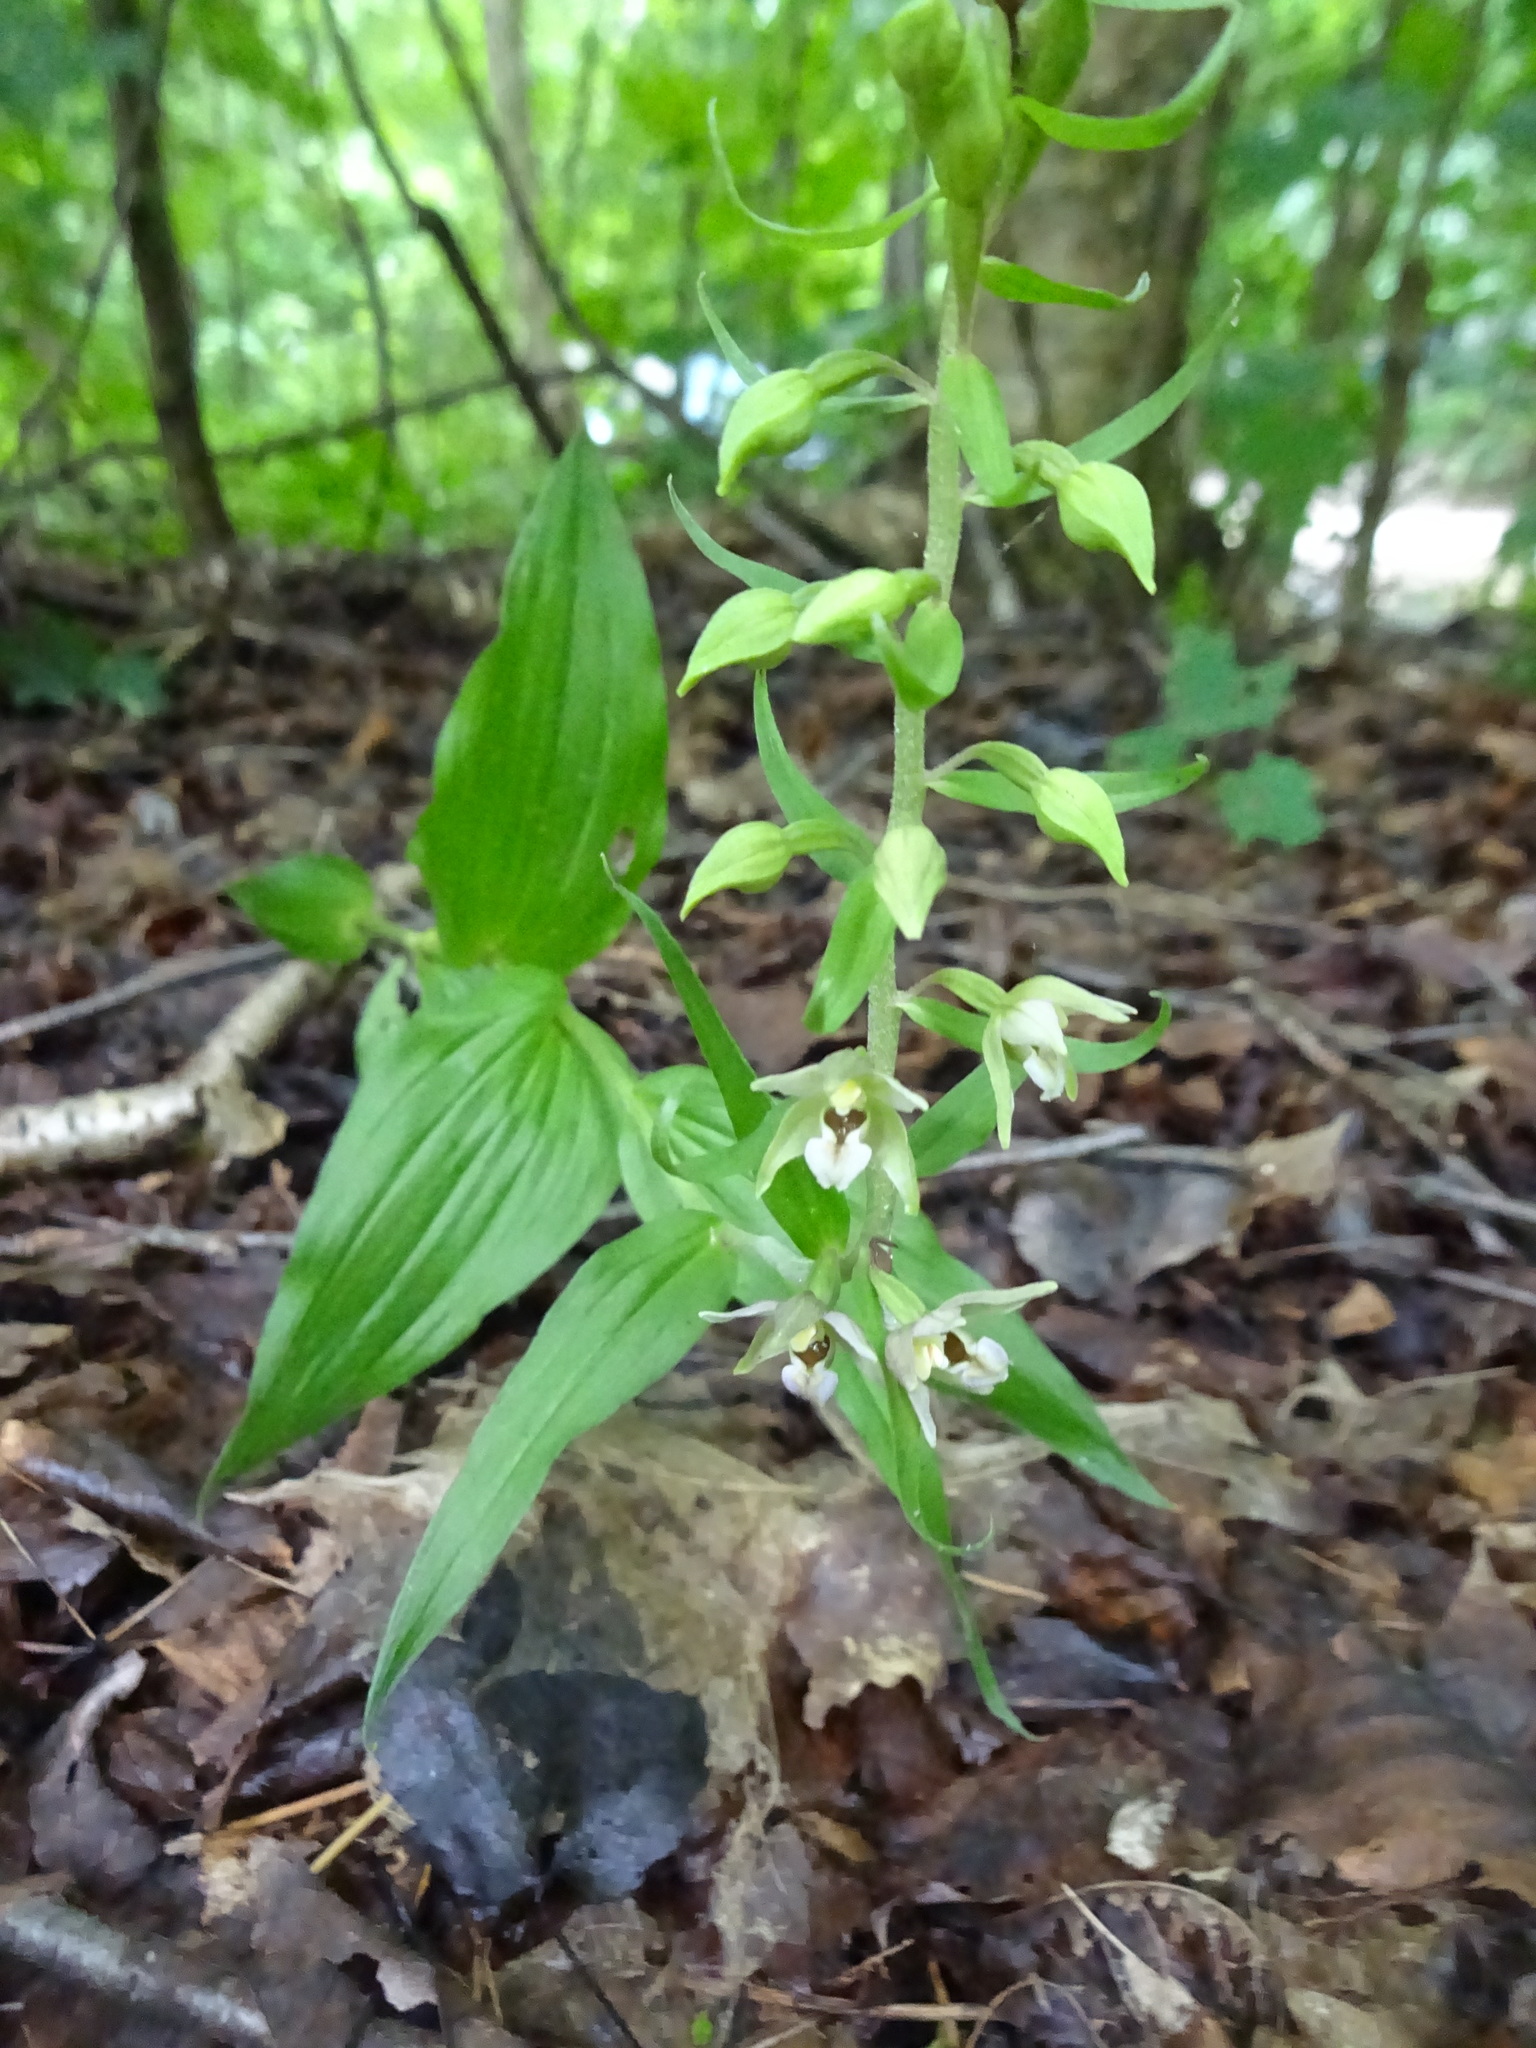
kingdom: Plantae
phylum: Tracheophyta
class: Liliopsida
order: Asparagales
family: Orchidaceae
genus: Epipactis
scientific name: Epipactis helleborine
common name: Broad-leaved helleborine
